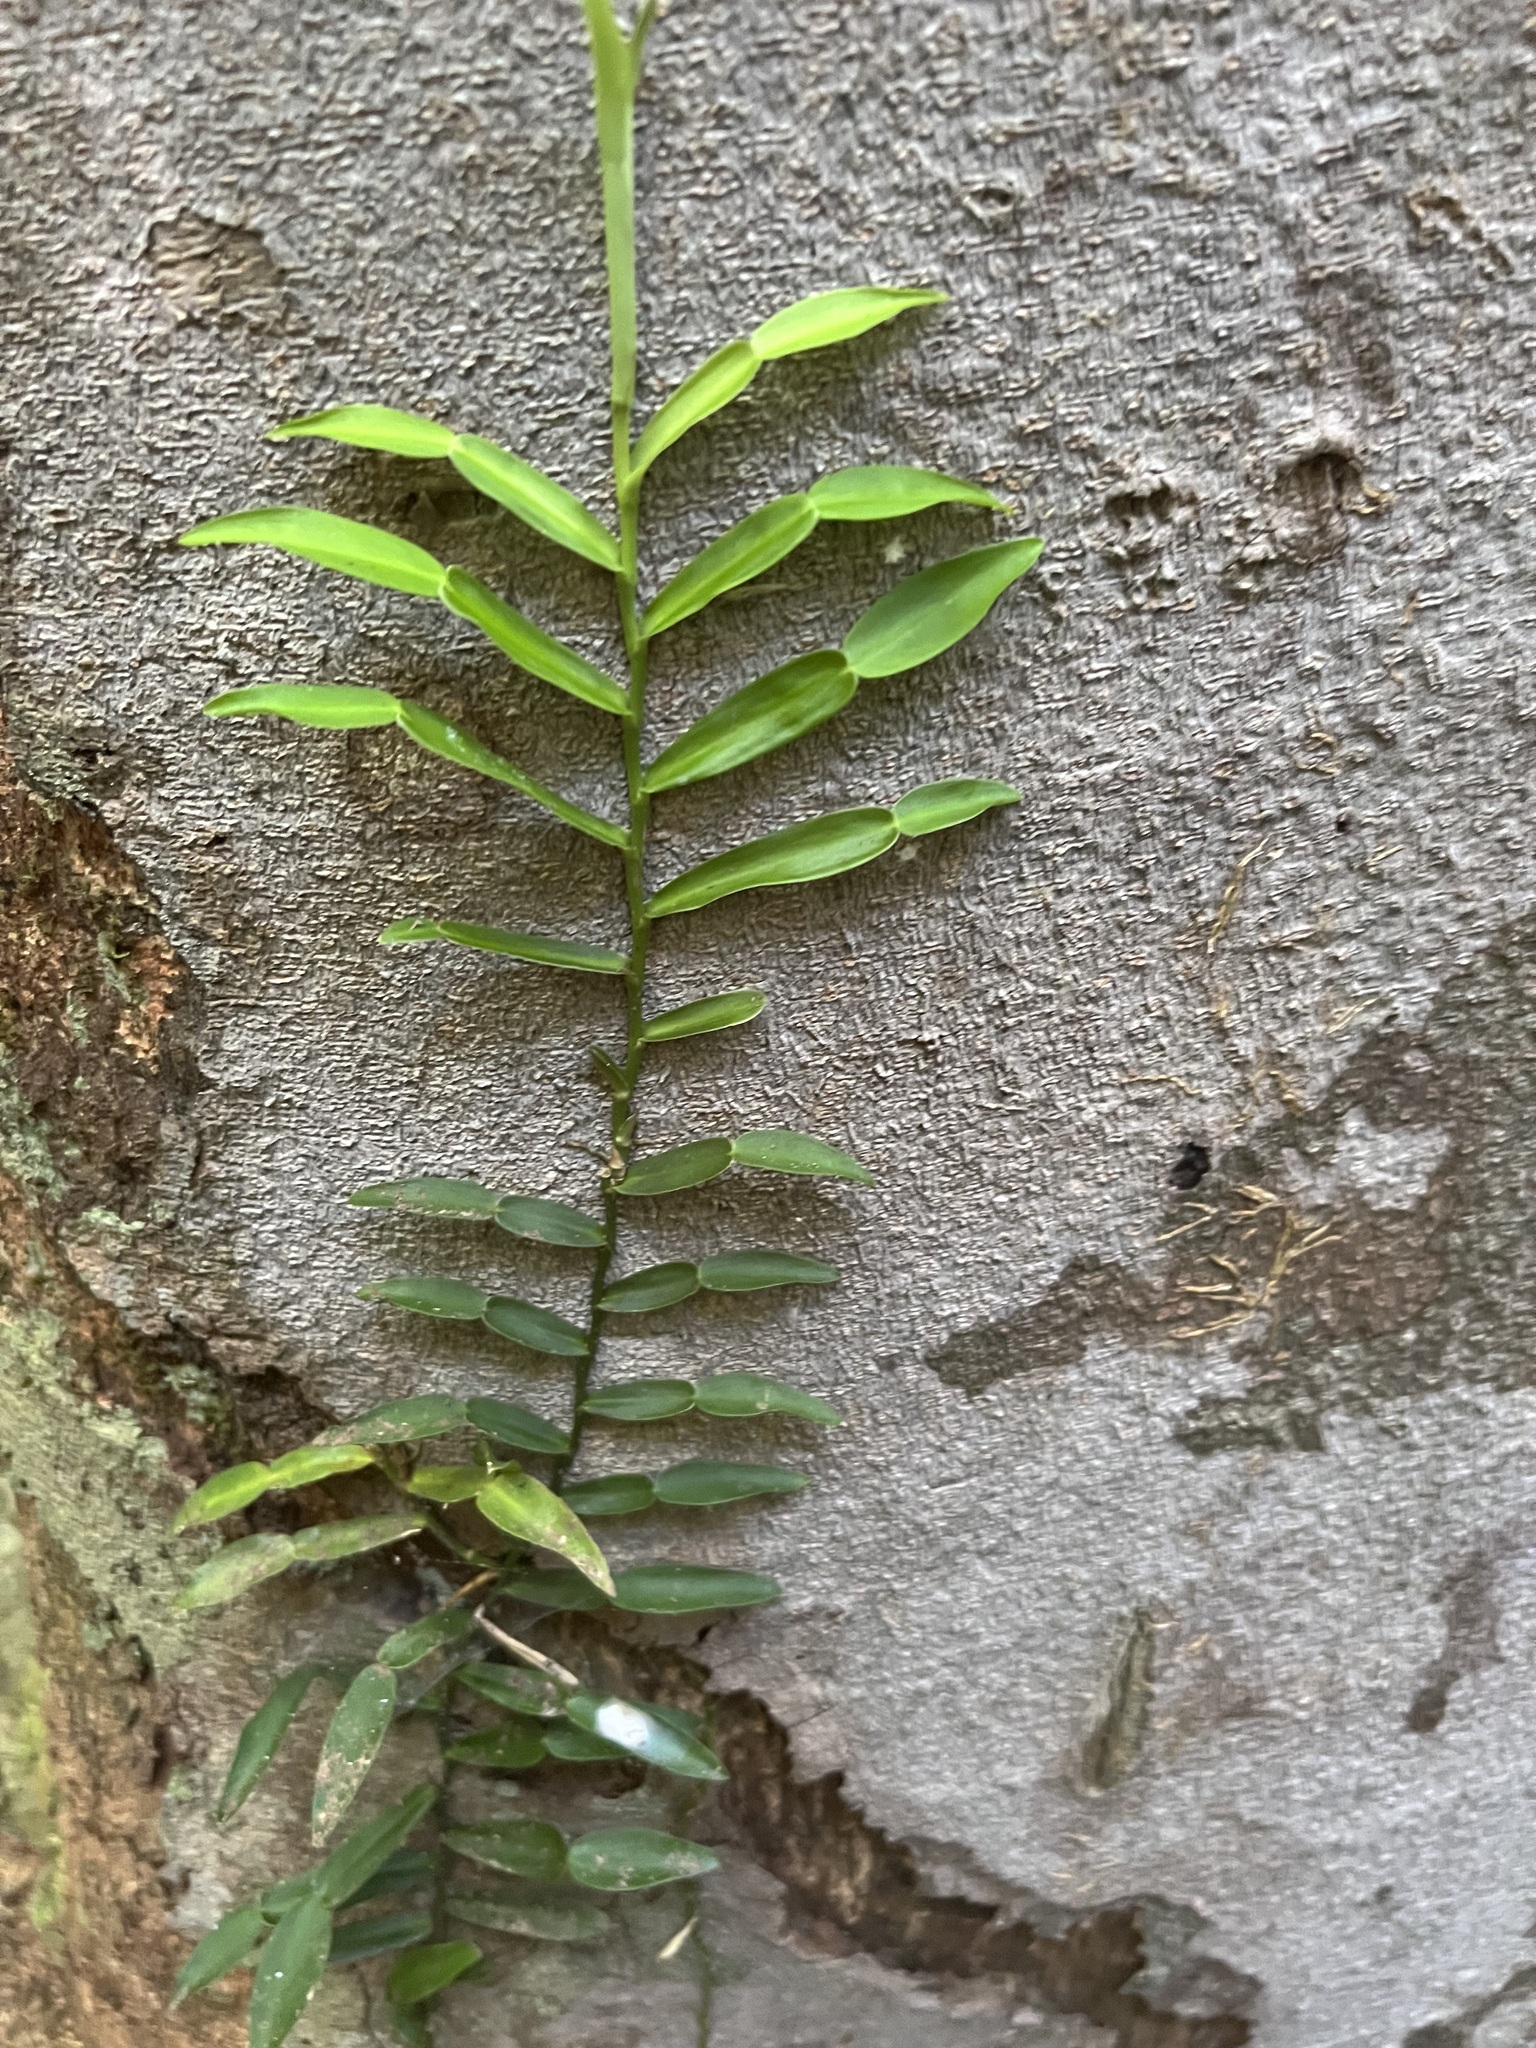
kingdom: Plantae
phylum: Tracheophyta
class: Liliopsida
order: Alismatales
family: Araceae
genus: Pothos
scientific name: Pothos longipes
